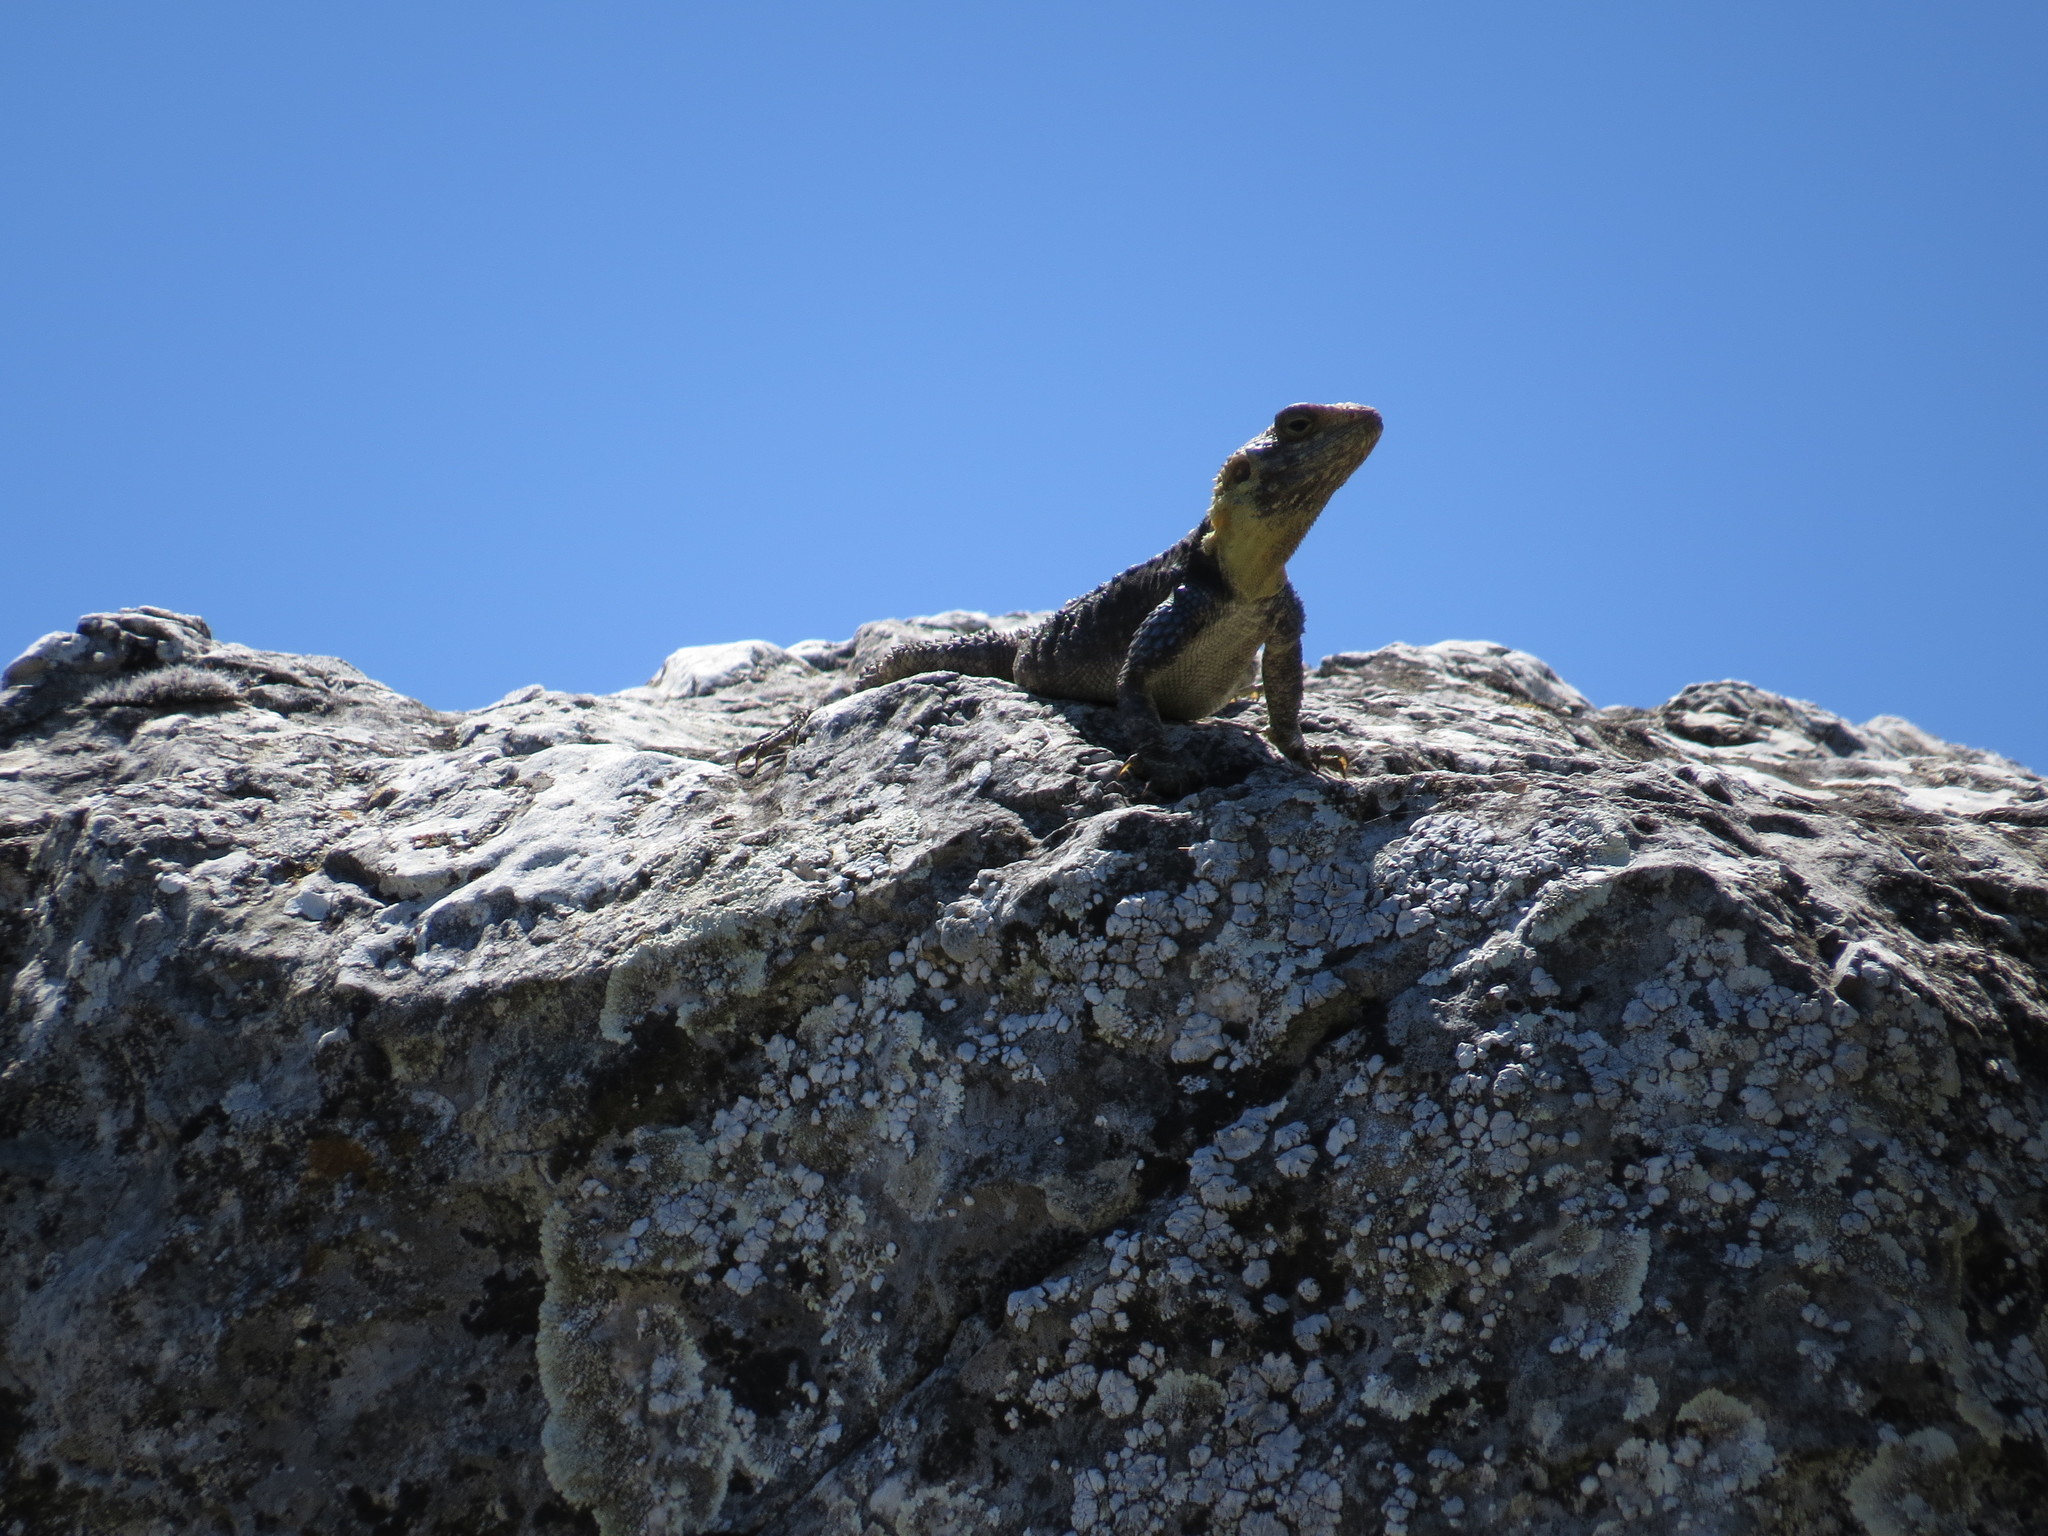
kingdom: Animalia
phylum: Chordata
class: Squamata
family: Agamidae
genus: Stellagama
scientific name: Stellagama stellio
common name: Starred agama
